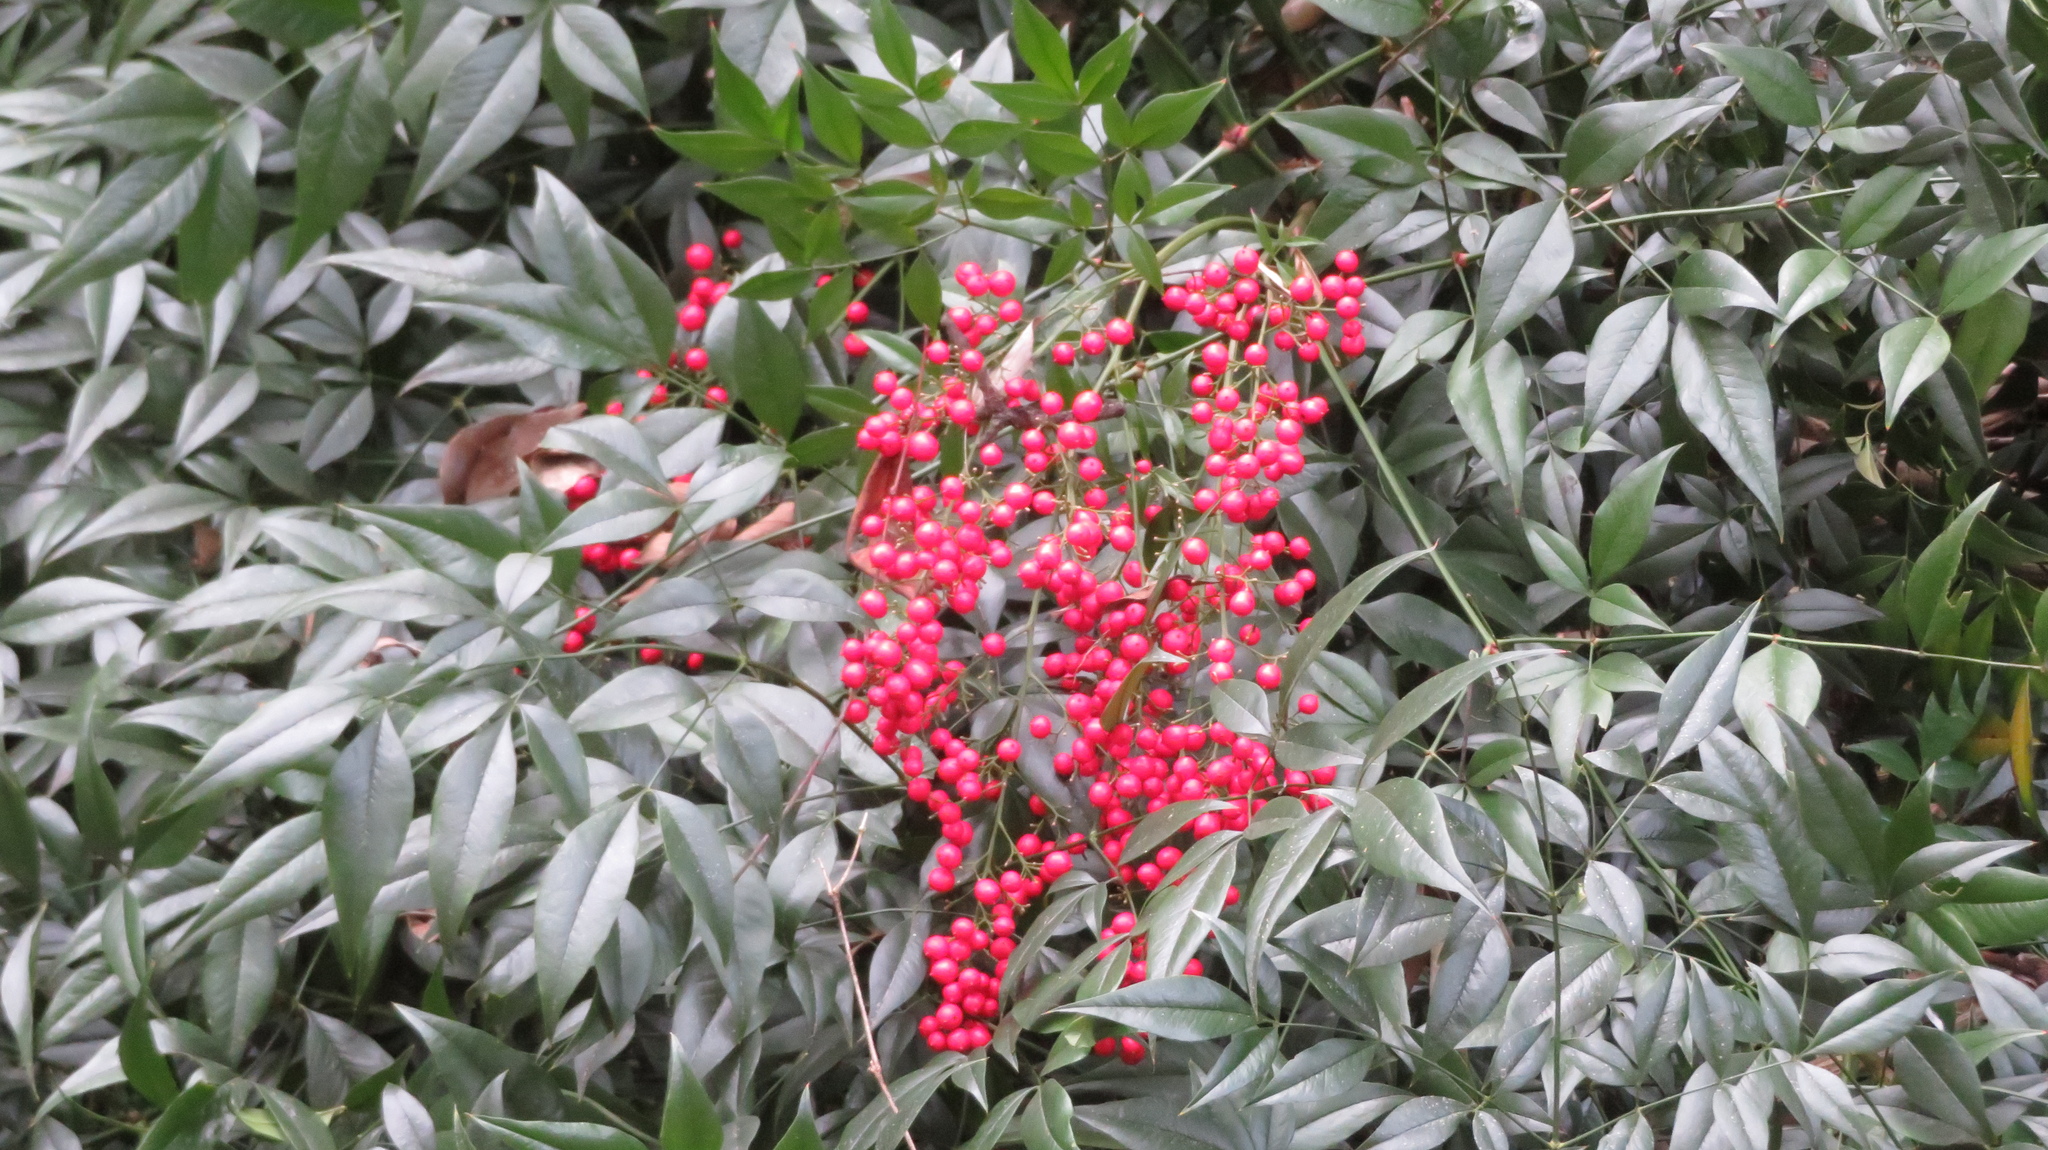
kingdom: Plantae
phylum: Tracheophyta
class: Magnoliopsida
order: Ranunculales
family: Berberidaceae
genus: Nandina
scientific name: Nandina domestica
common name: Sacred bamboo
